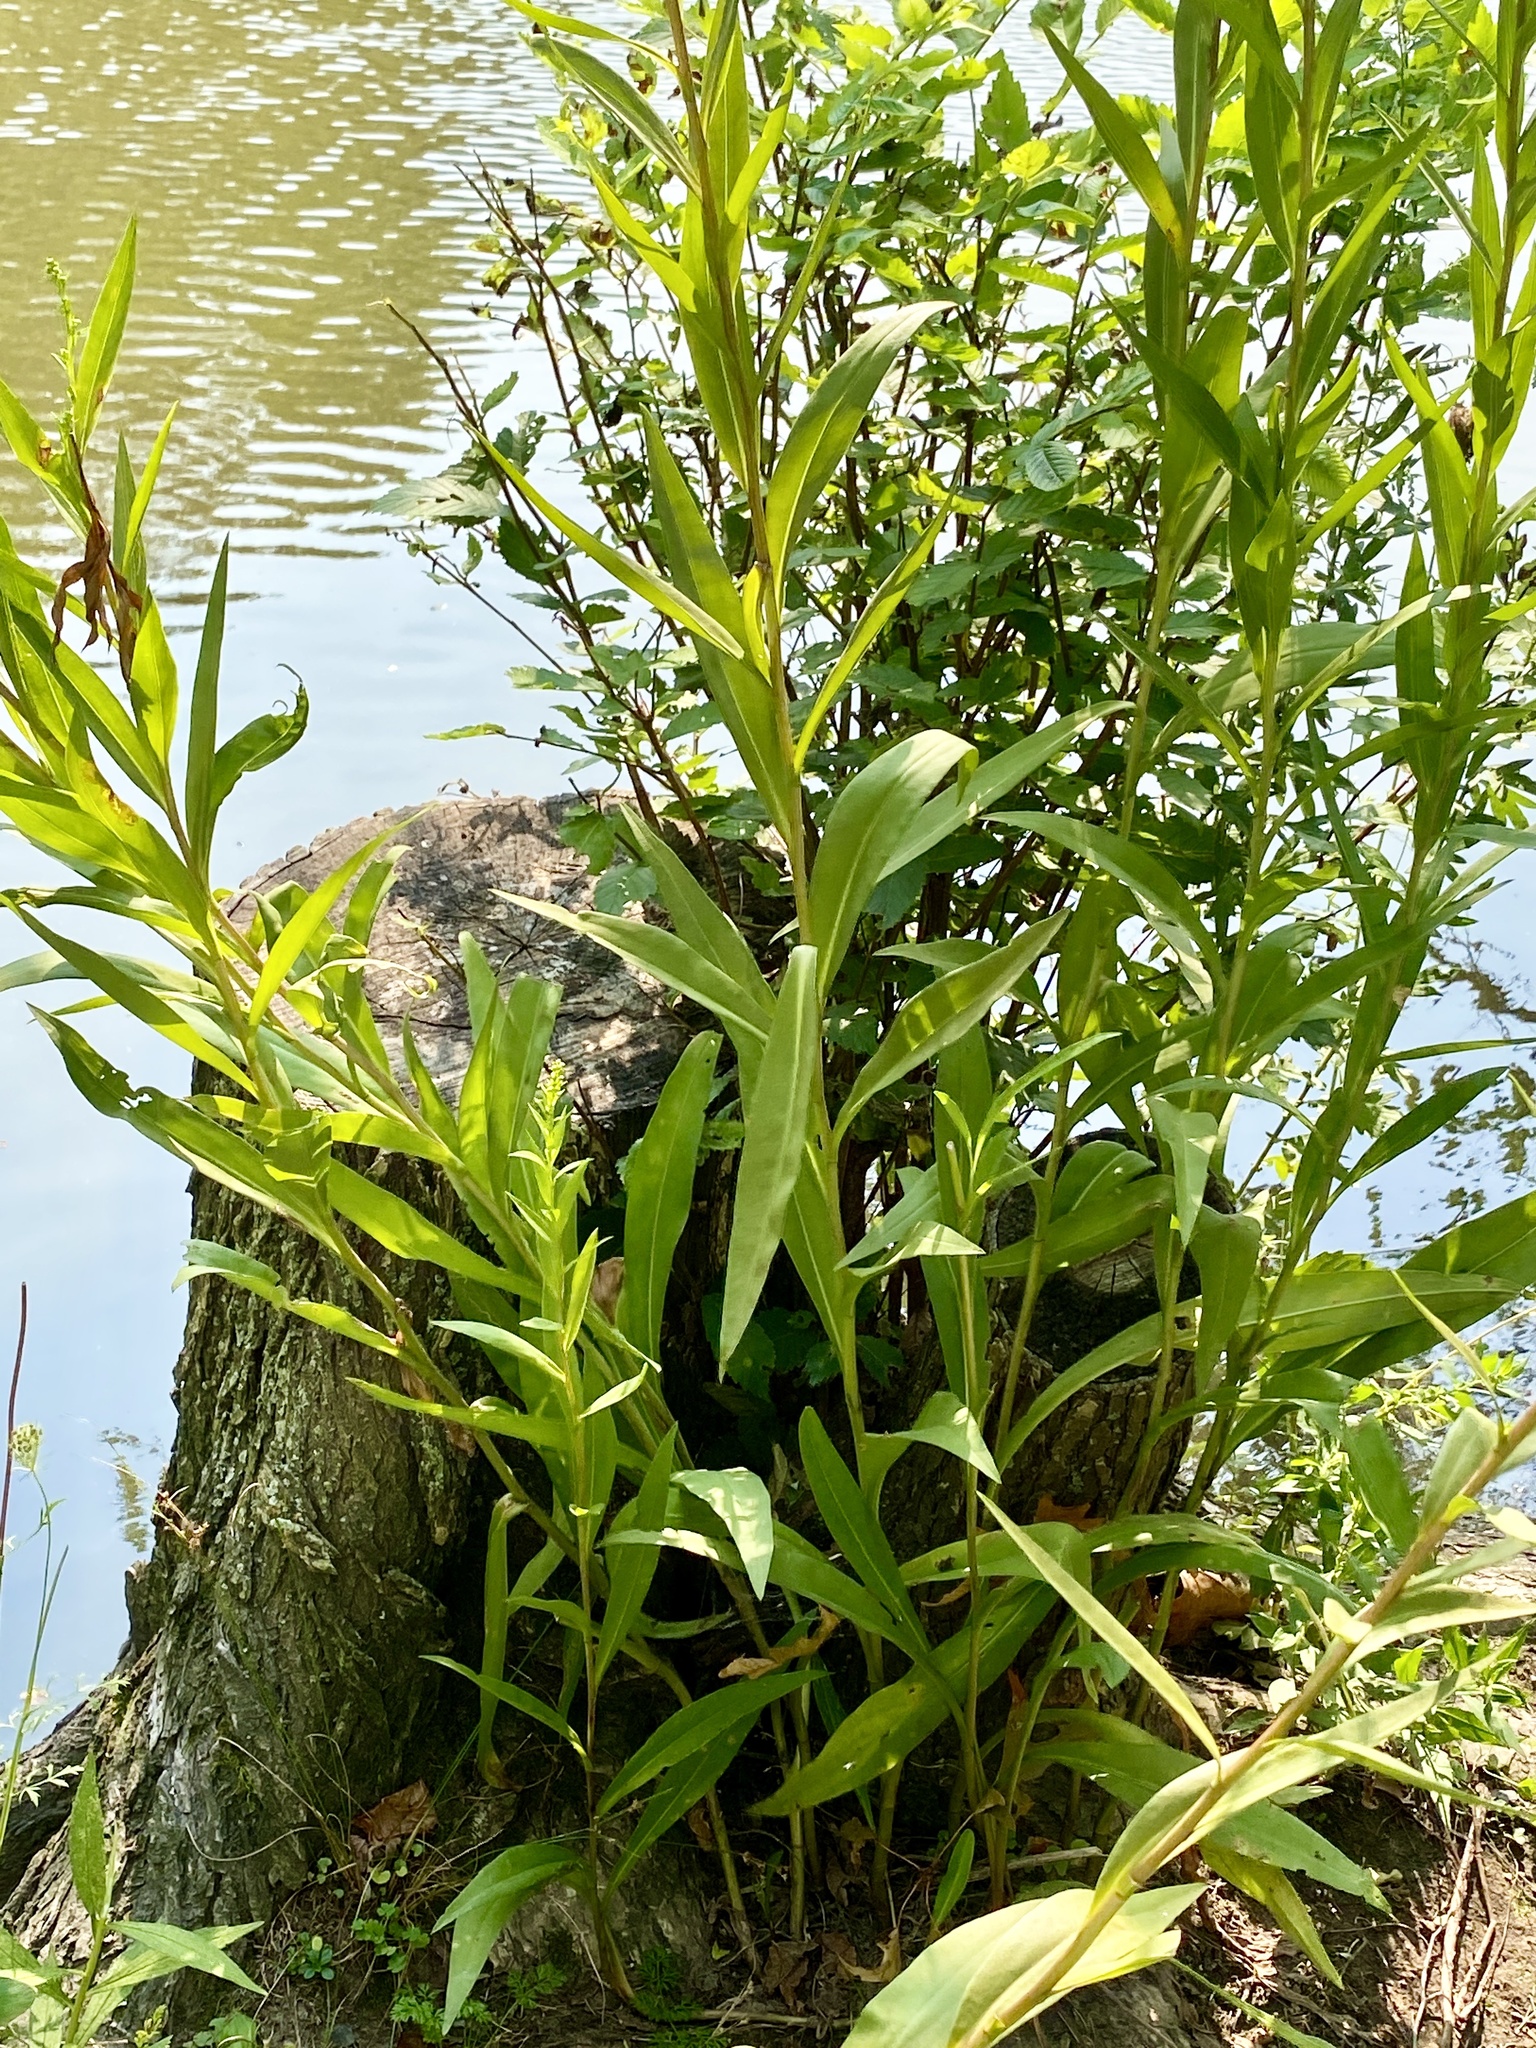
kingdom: Plantae
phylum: Tracheophyta
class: Magnoliopsida
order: Asterales
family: Asteraceae
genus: Solidago
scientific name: Solidago sempervirens
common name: Salt-marsh goldenrod
